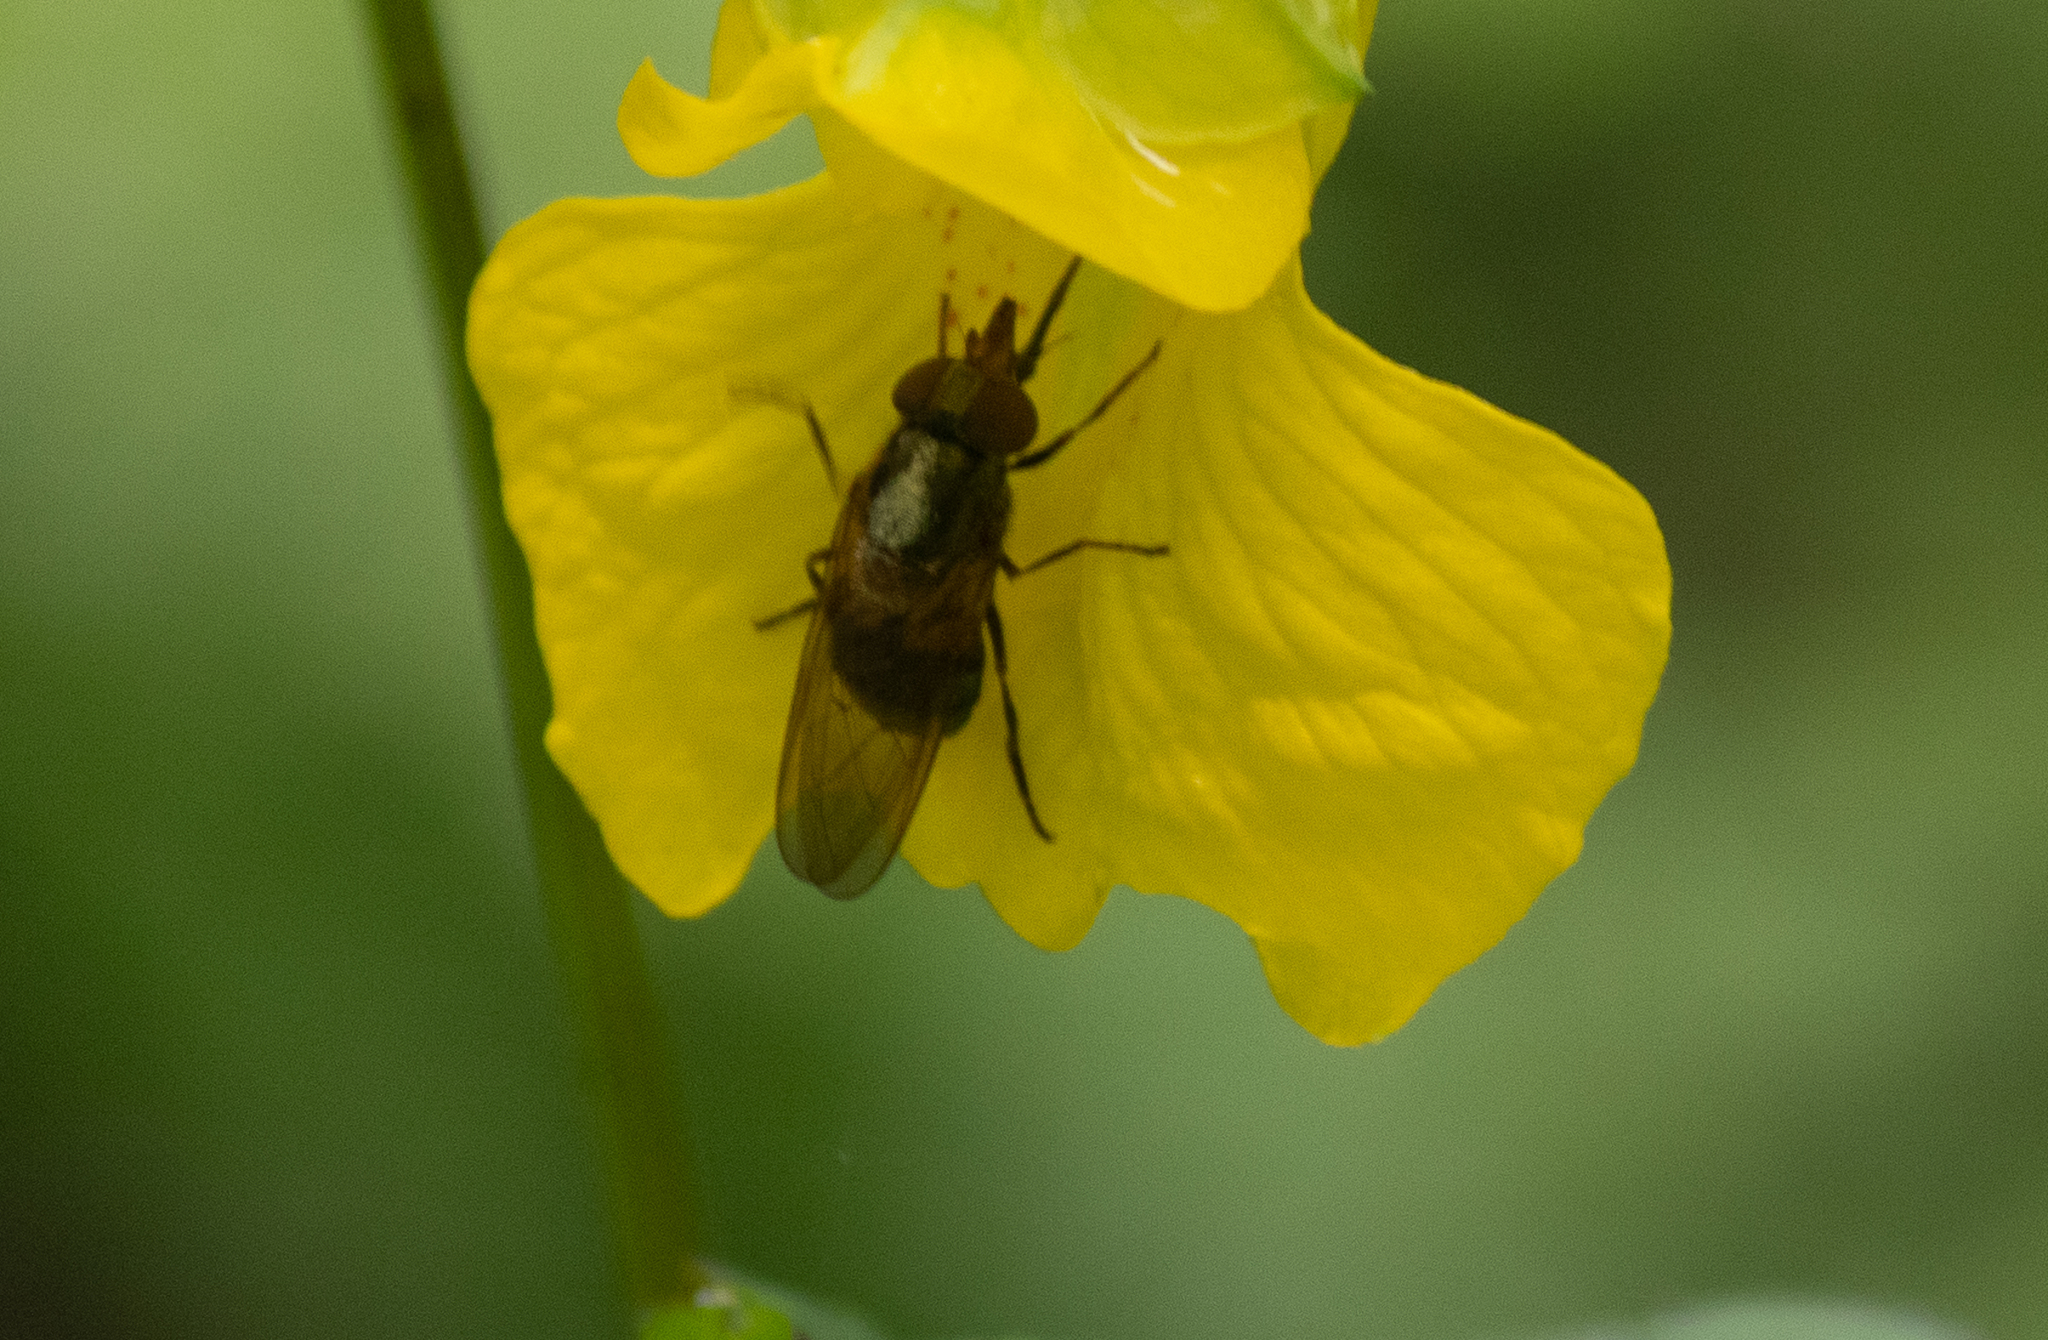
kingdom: Animalia
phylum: Arthropoda
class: Insecta
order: Diptera
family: Syrphidae
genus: Rhingia
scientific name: Rhingia nasica
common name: American snout fly
